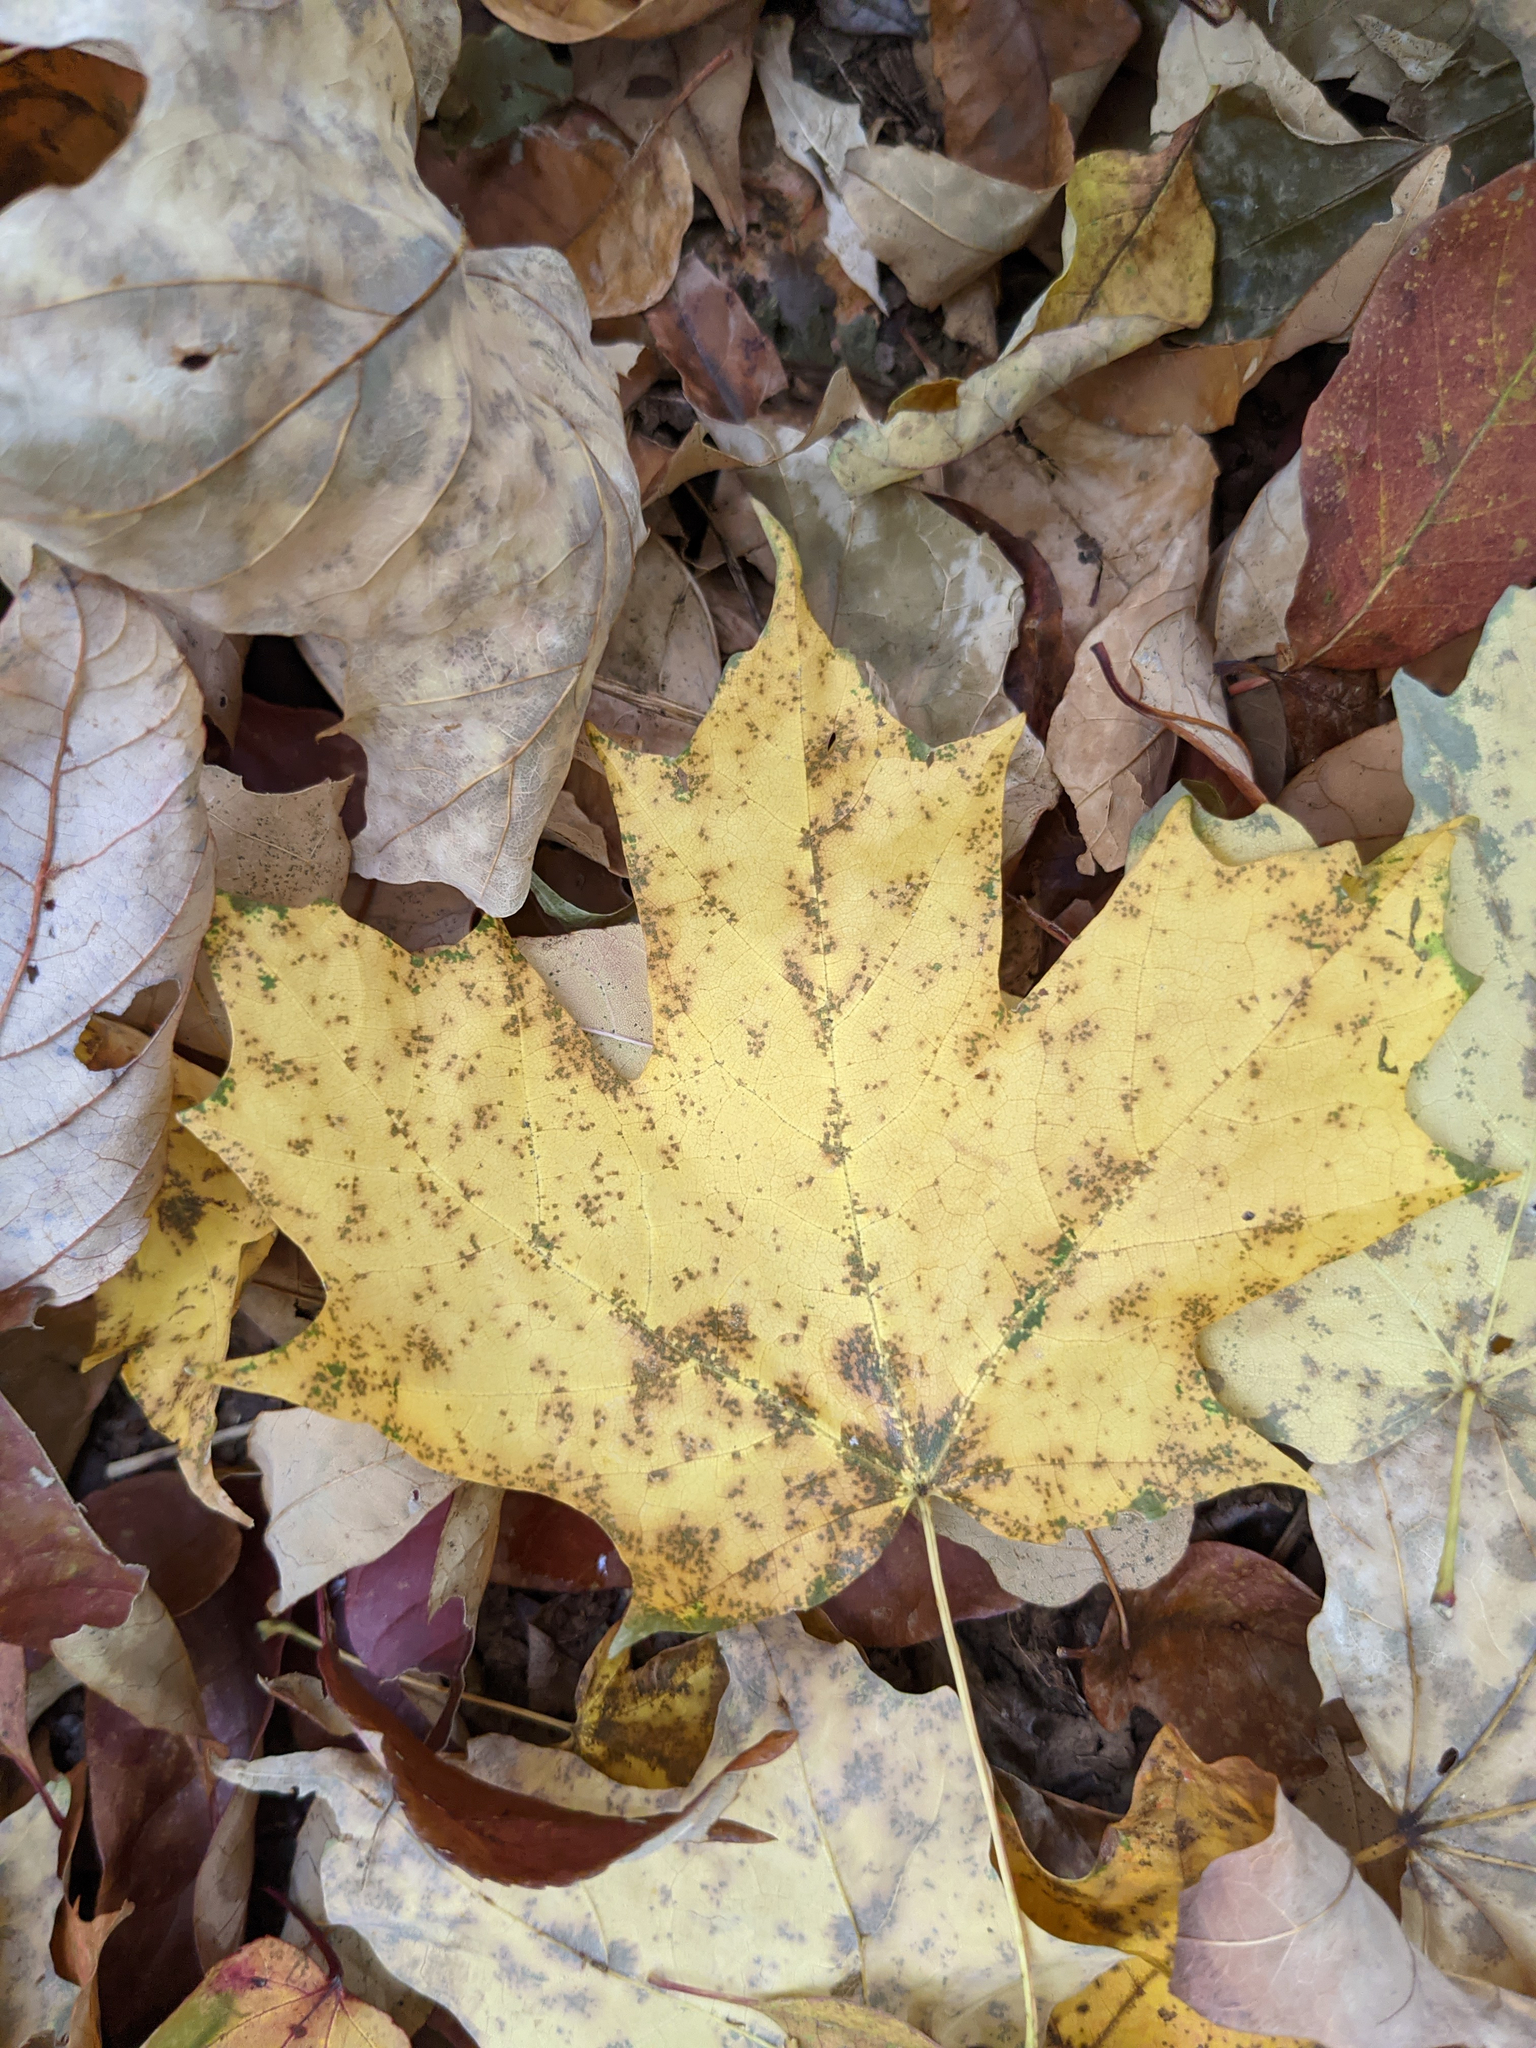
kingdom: Plantae
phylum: Tracheophyta
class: Magnoliopsida
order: Sapindales
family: Sapindaceae
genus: Acer
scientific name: Acer saccharum
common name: Sugar maple
